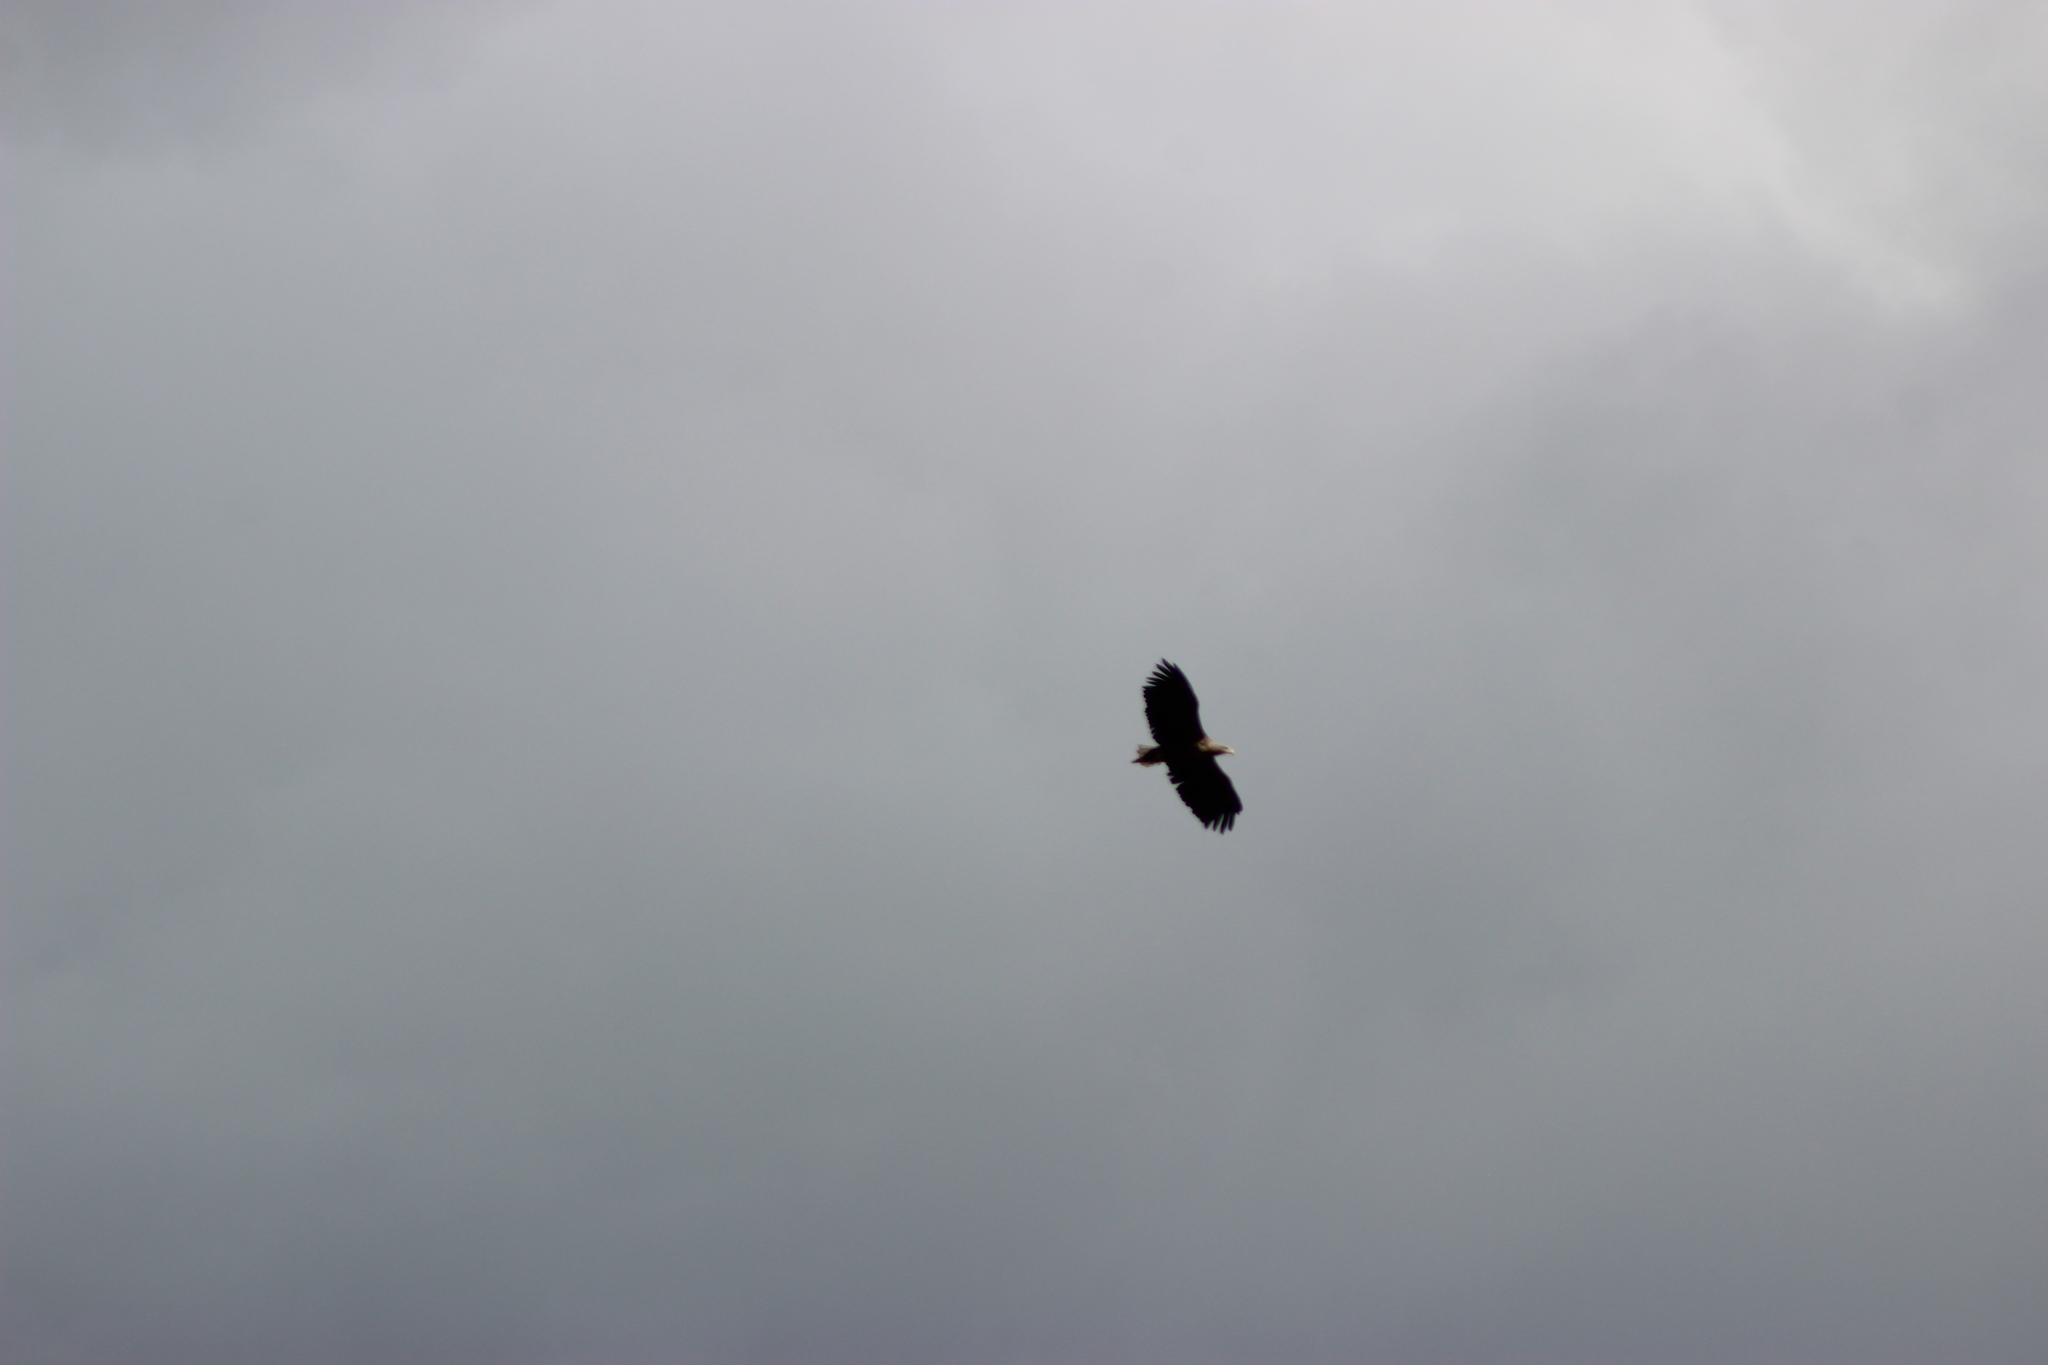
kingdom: Animalia
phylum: Chordata
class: Aves
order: Accipitriformes
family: Accipitridae
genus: Haliaeetus
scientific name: Haliaeetus albicilla
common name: White-tailed eagle
